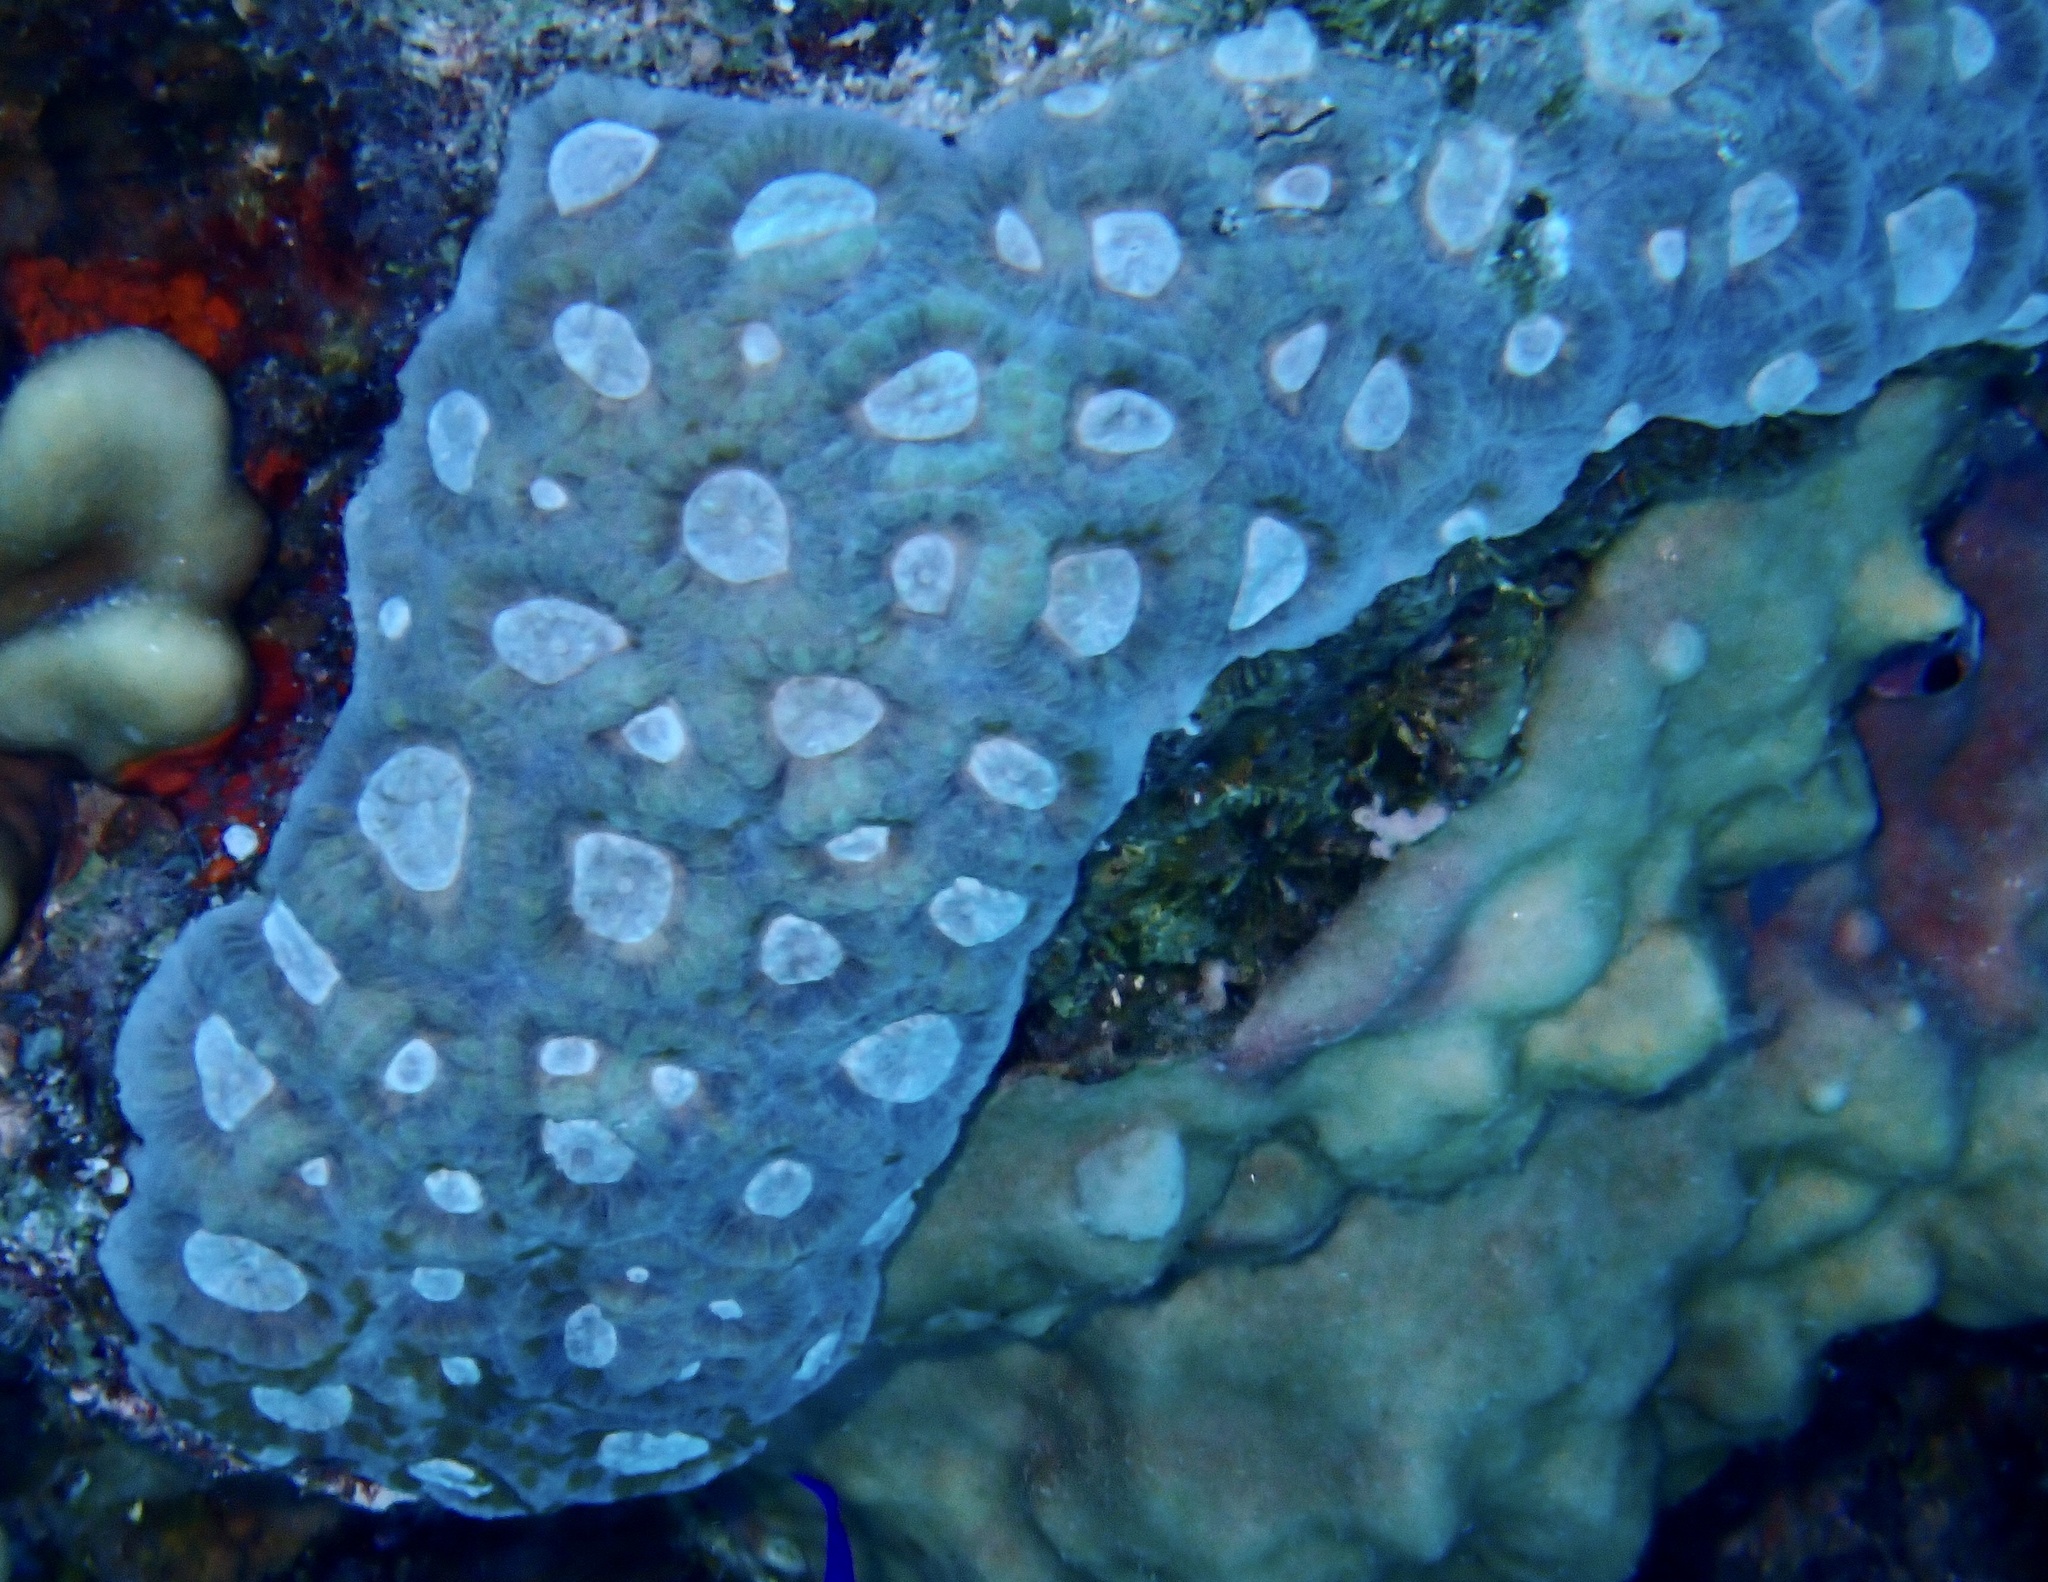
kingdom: Animalia
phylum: Cnidaria
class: Anthozoa
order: Scleractinia
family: Merulinidae
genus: Astraeosmilia
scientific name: Astraeosmilia maxima
